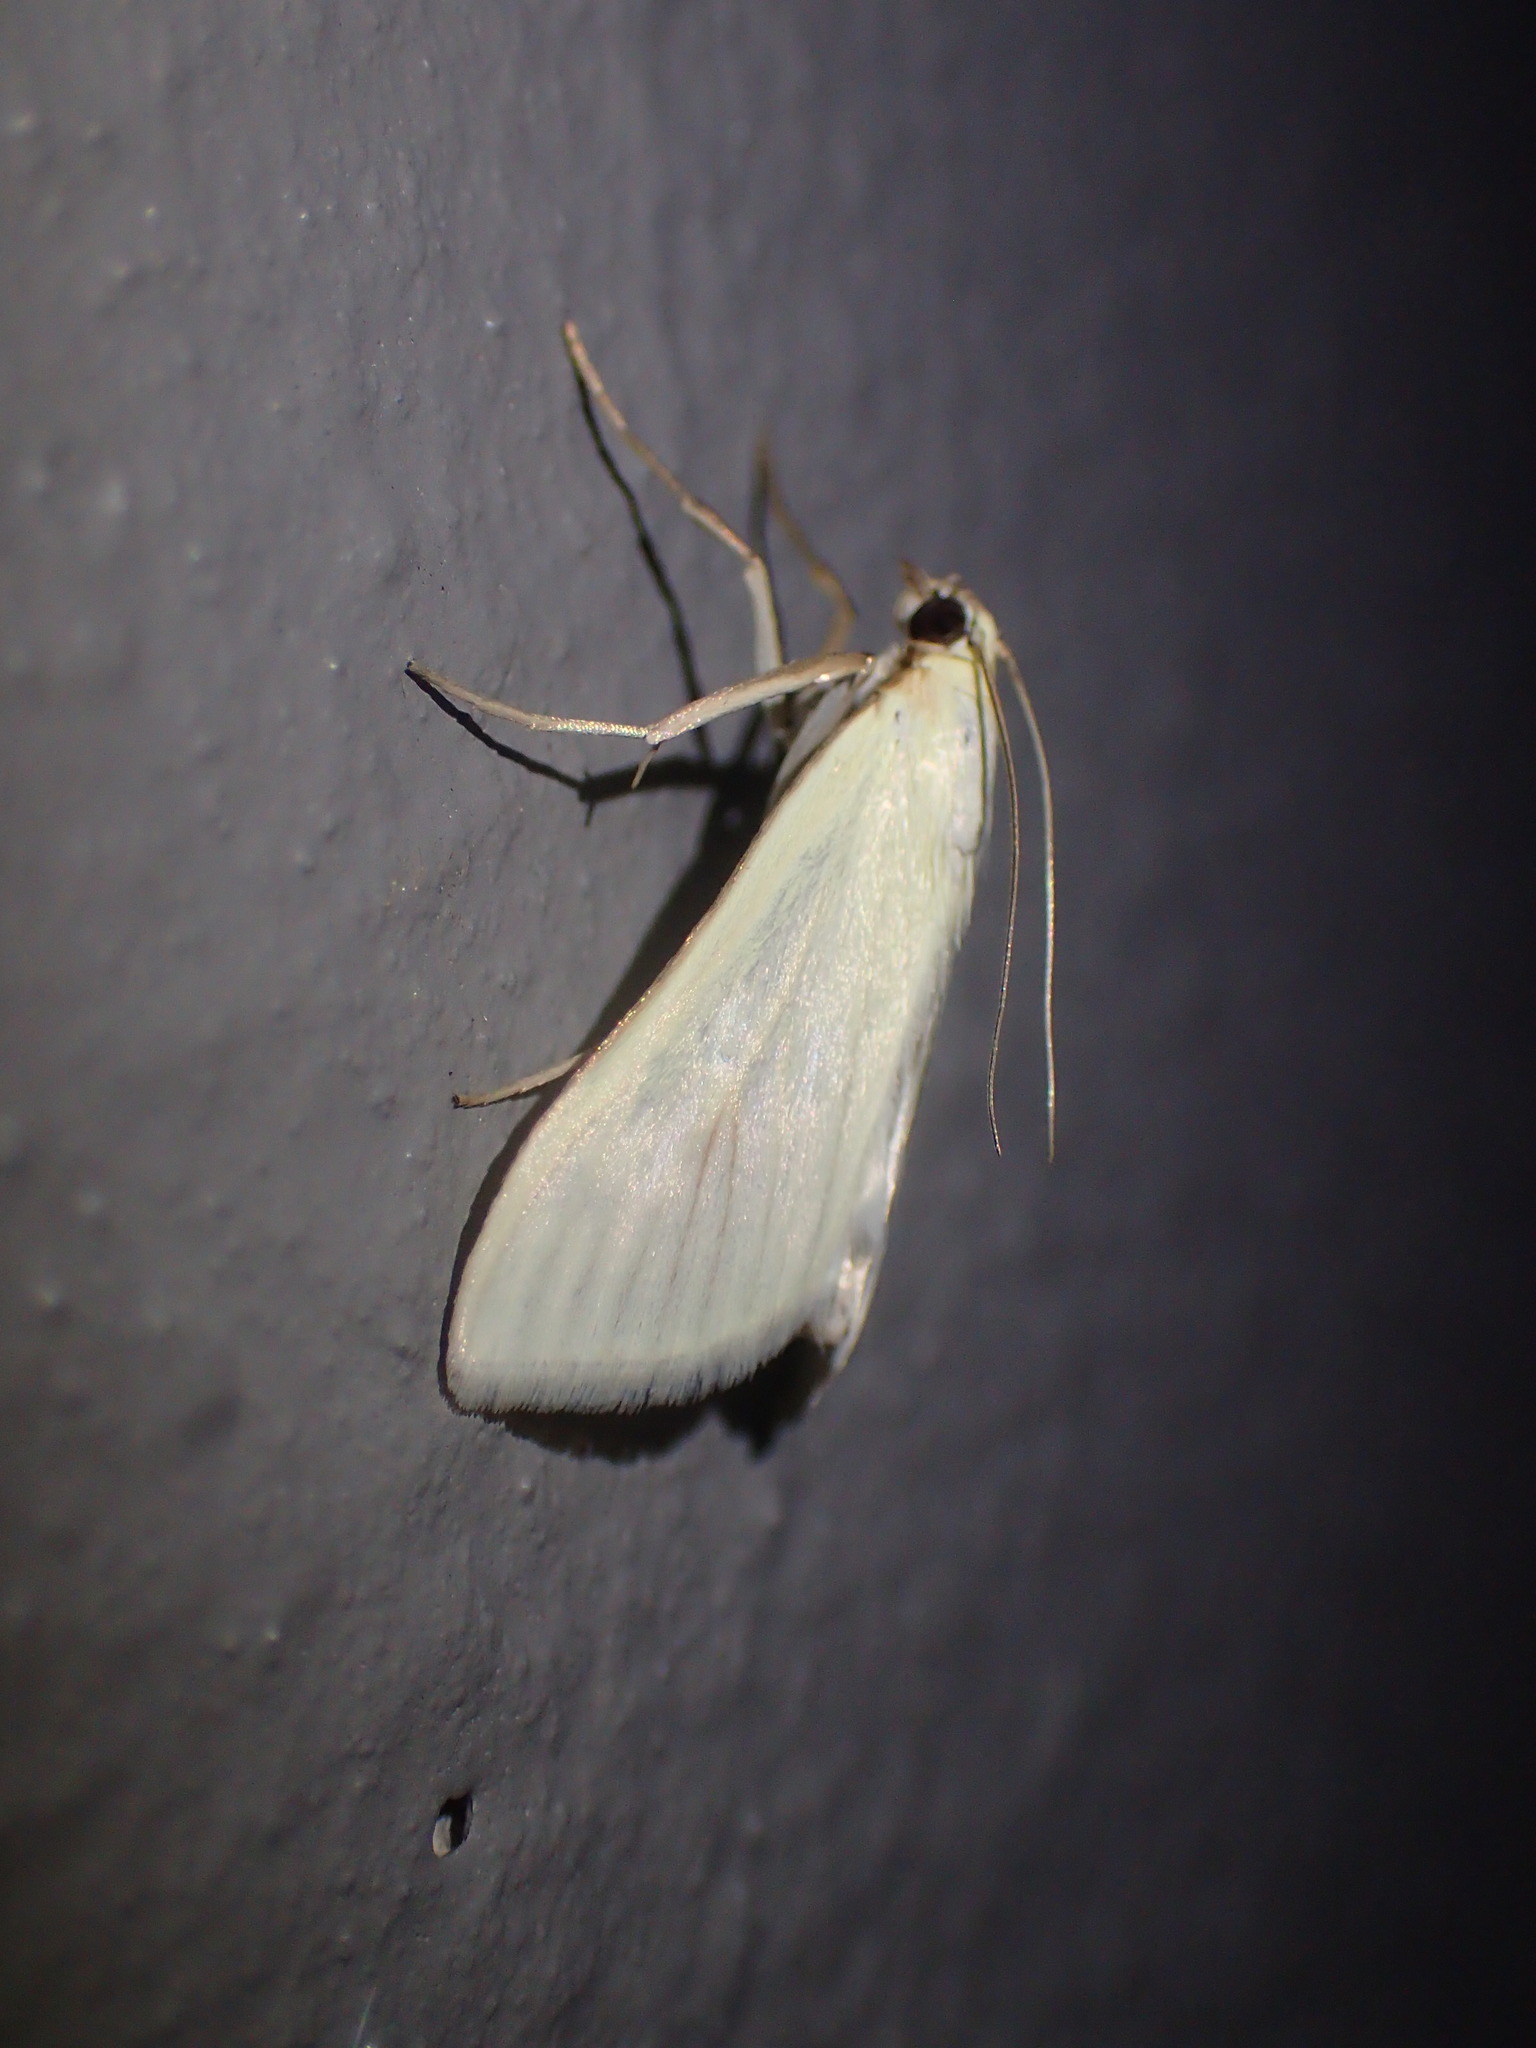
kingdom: Animalia
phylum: Arthropoda
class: Insecta
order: Lepidoptera
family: Crambidae
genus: Sitochroa
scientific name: Sitochroa palealis
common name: Greenish-yellow sitochroa moth
